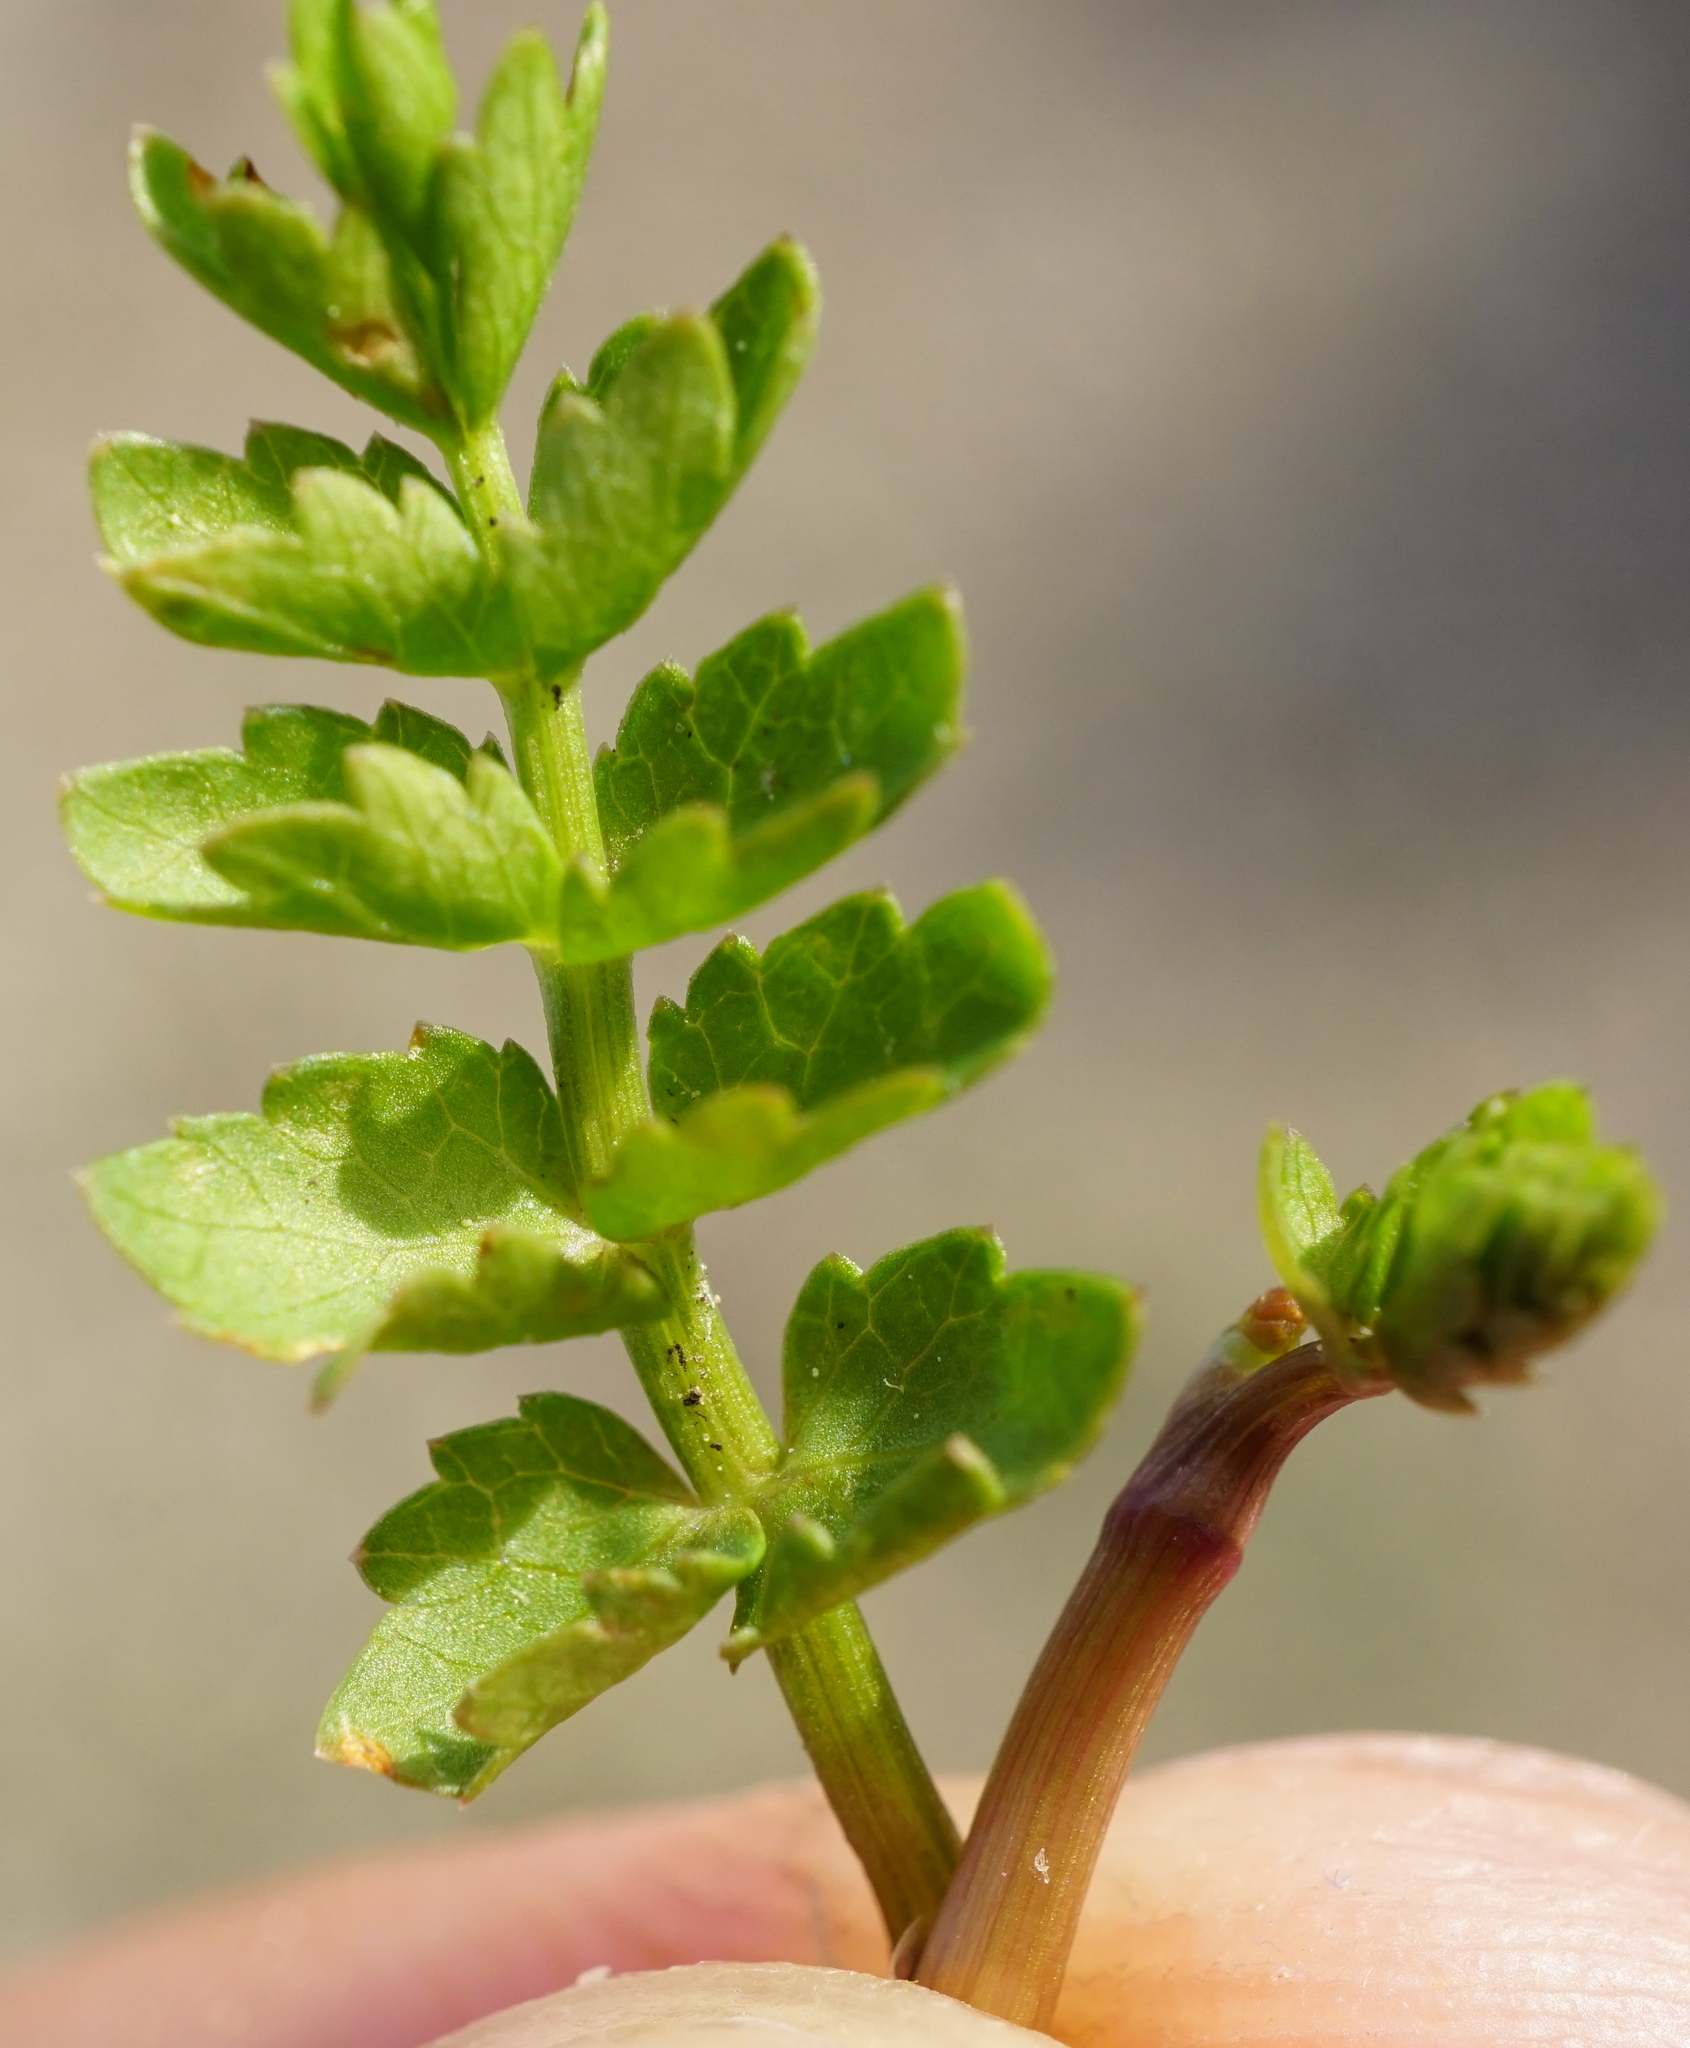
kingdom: Plantae
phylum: Tracheophyta
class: Magnoliopsida
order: Apiales
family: Apiaceae
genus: Helosciadium
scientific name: Helosciadium repens
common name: Creeping marshwort
